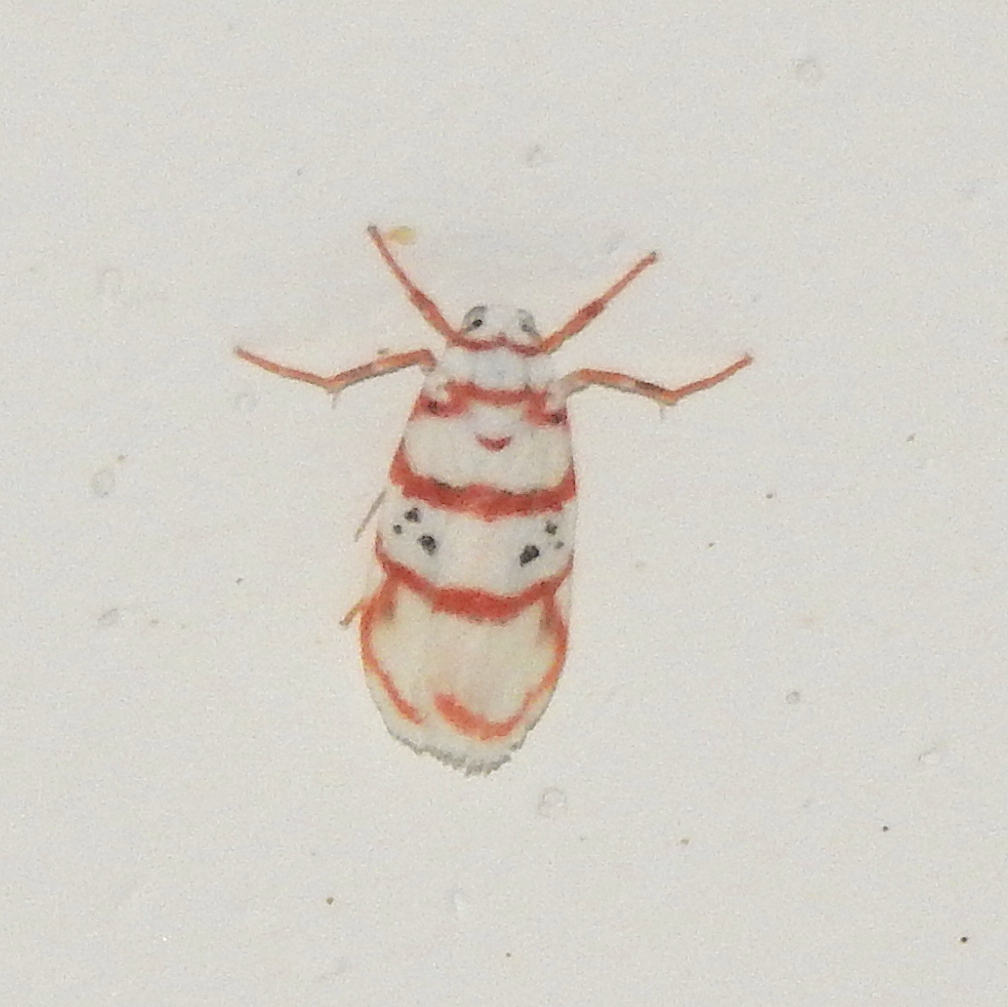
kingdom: Animalia
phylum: Arthropoda
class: Insecta
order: Lepidoptera
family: Erebidae
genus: Cyana
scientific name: Cyana peregrina
